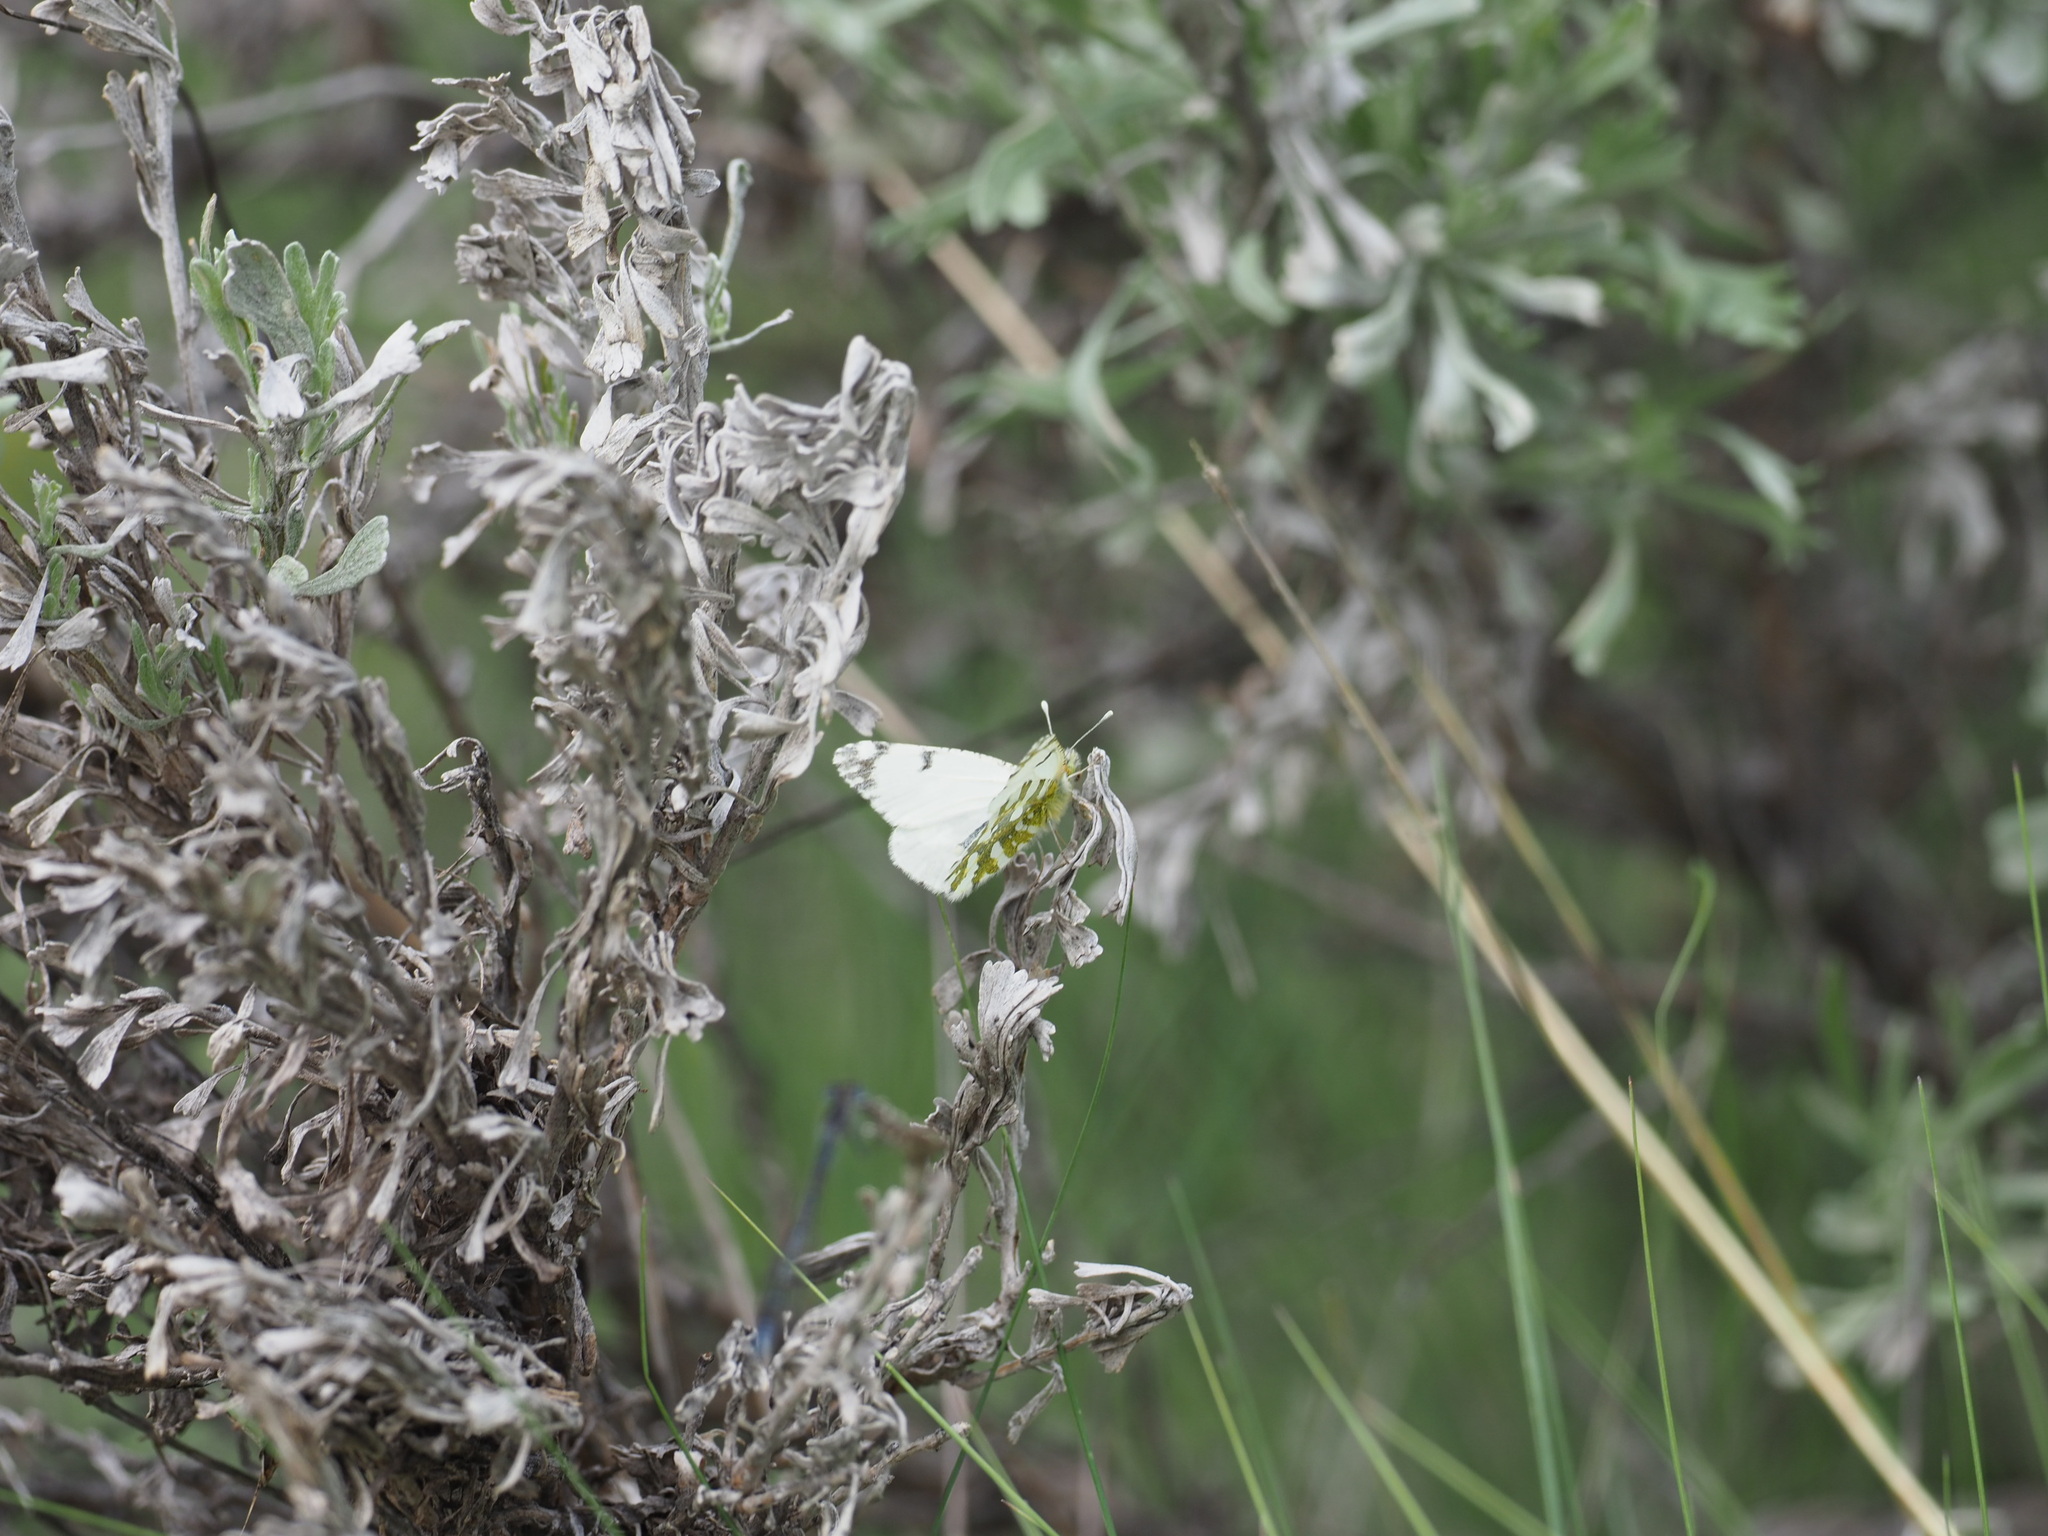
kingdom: Animalia
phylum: Arthropoda
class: Insecta
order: Lepidoptera
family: Pieridae
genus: Euchloe
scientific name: Euchloe ausonides
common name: Creamy marblewing
